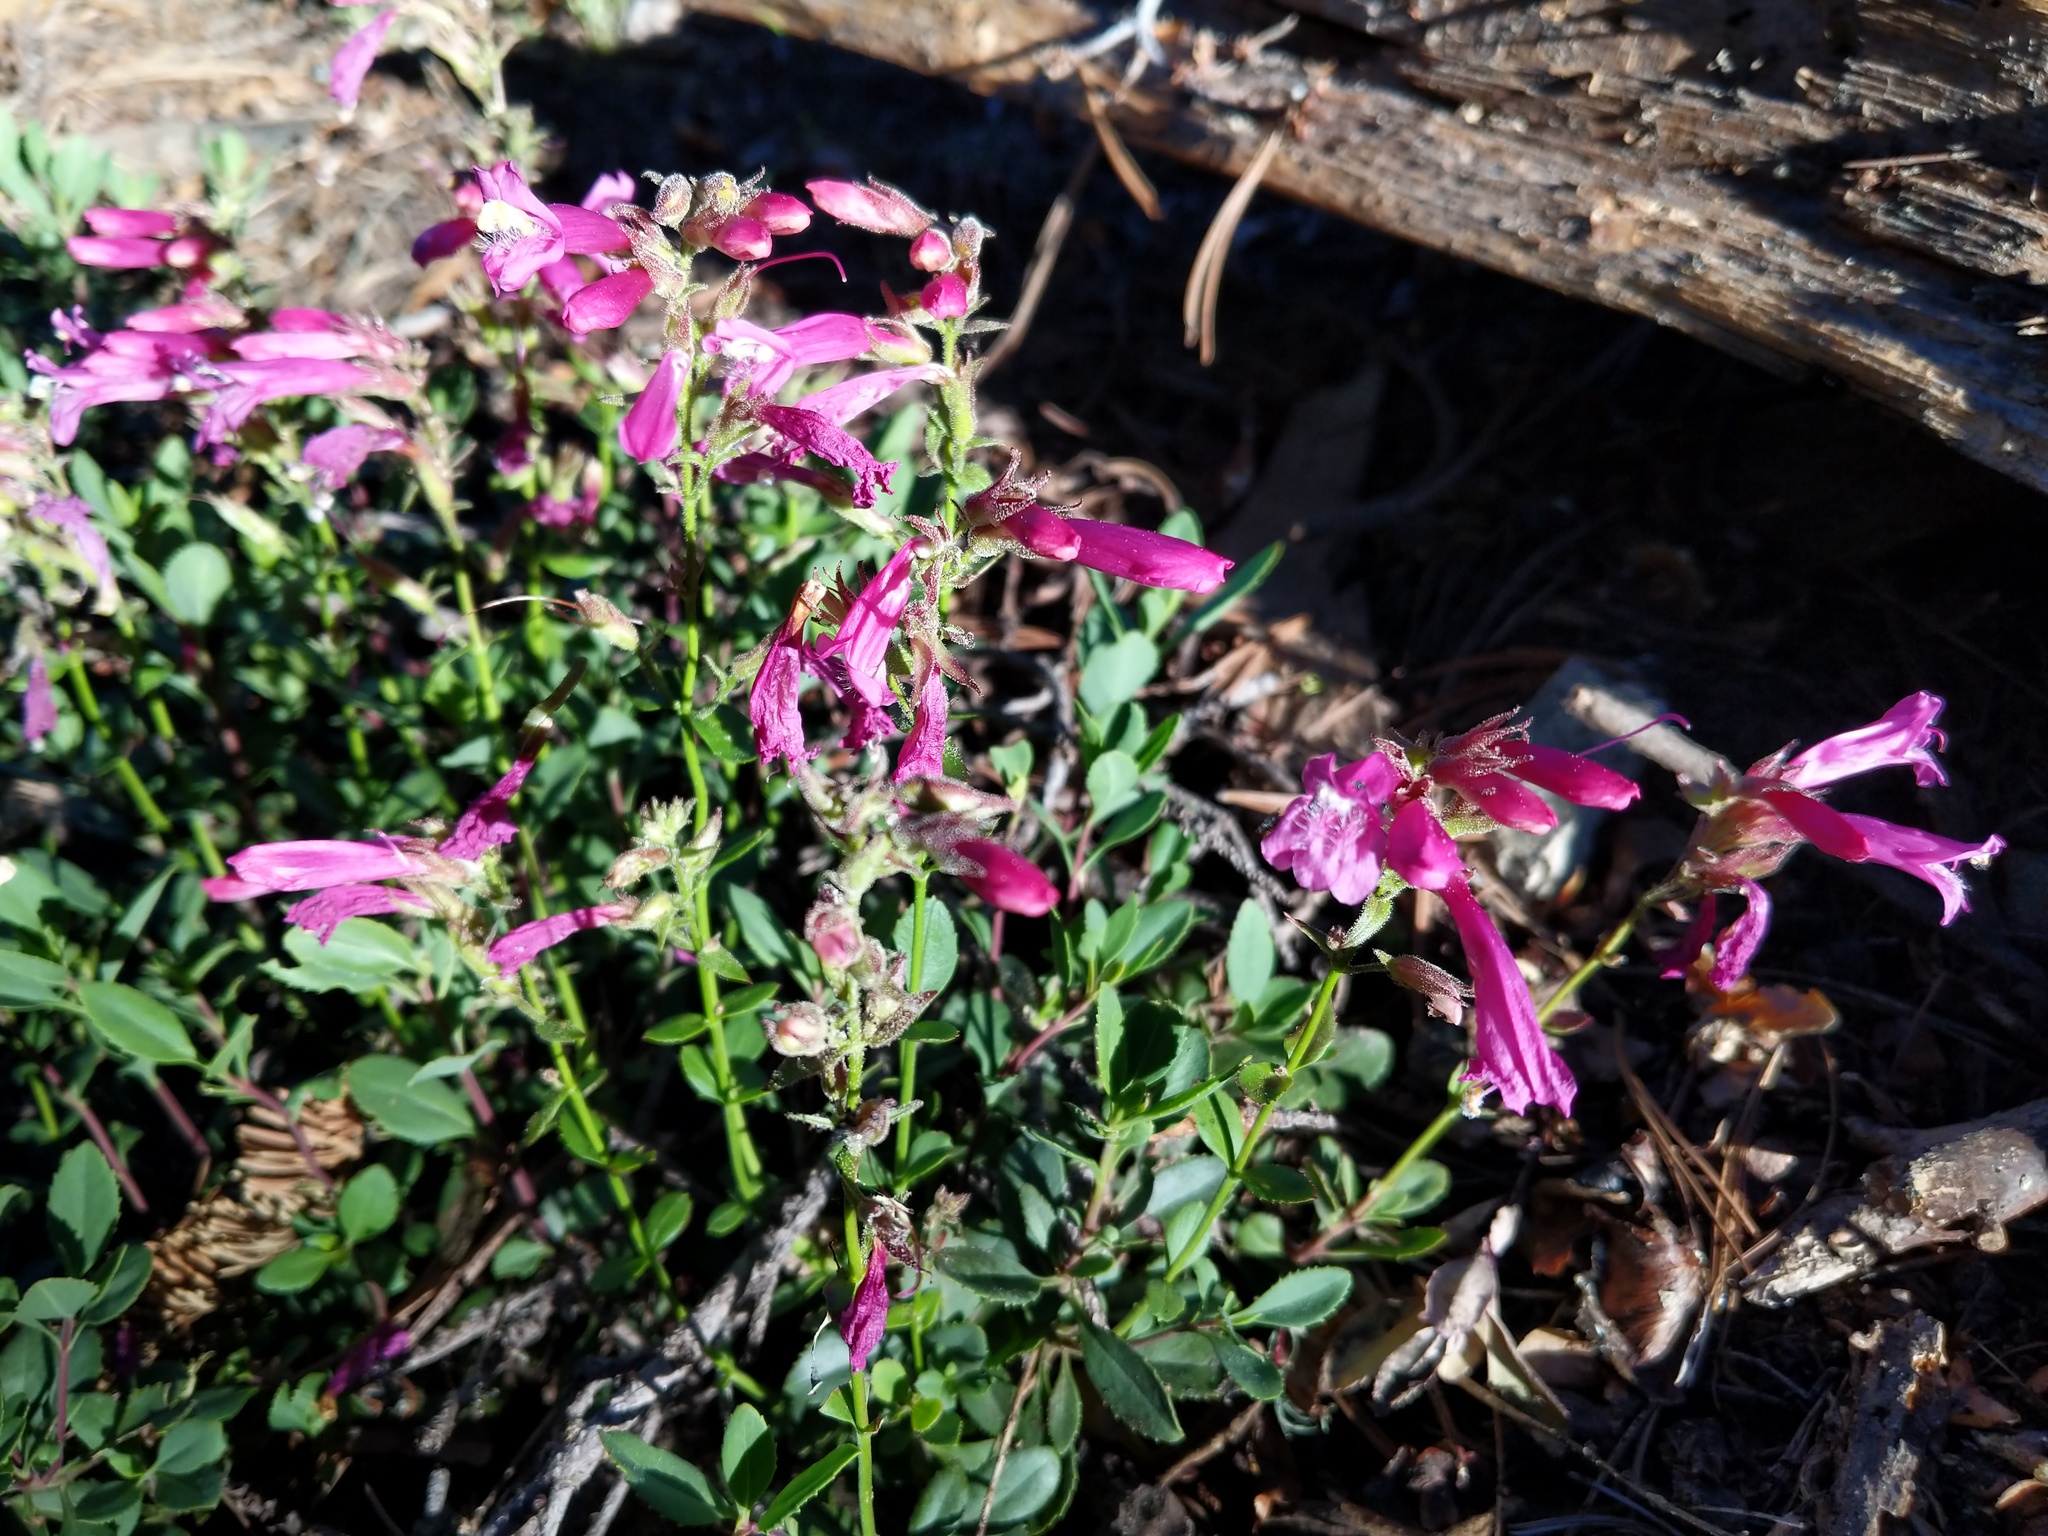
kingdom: Plantae
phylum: Tracheophyta
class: Magnoliopsida
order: Lamiales
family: Plantaginaceae
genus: Penstemon
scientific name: Penstemon newberryi
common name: Mountain-pride
